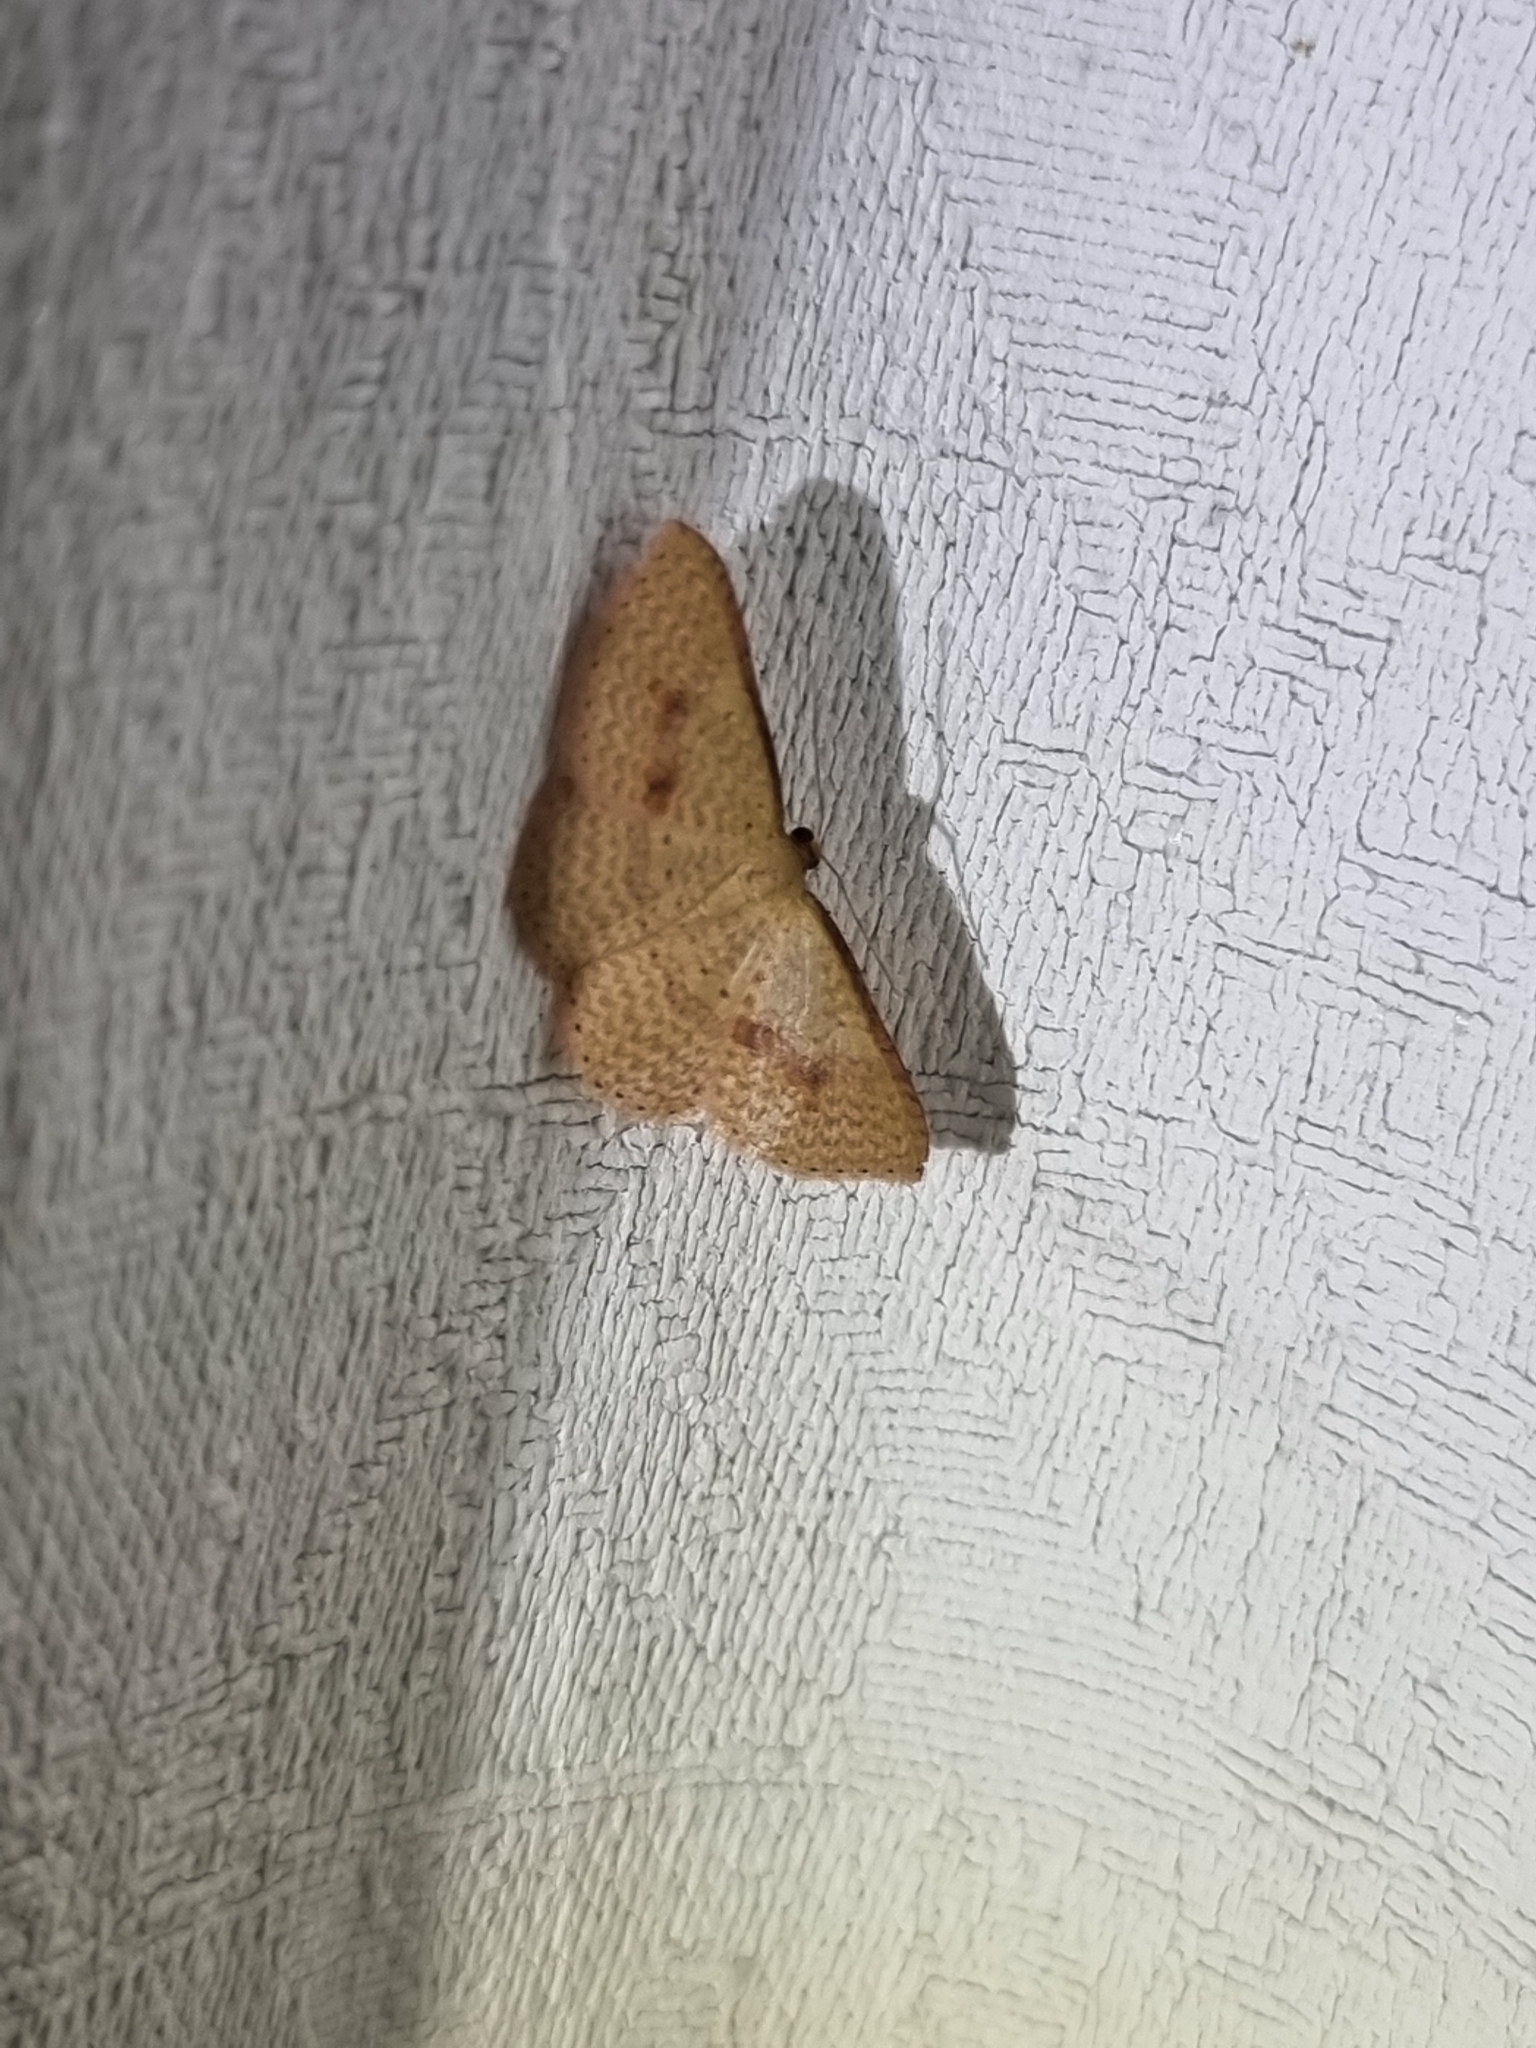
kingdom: Animalia
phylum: Arthropoda
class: Insecta
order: Lepidoptera
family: Geometridae
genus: Epicyme
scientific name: Epicyme rubropunctaria
